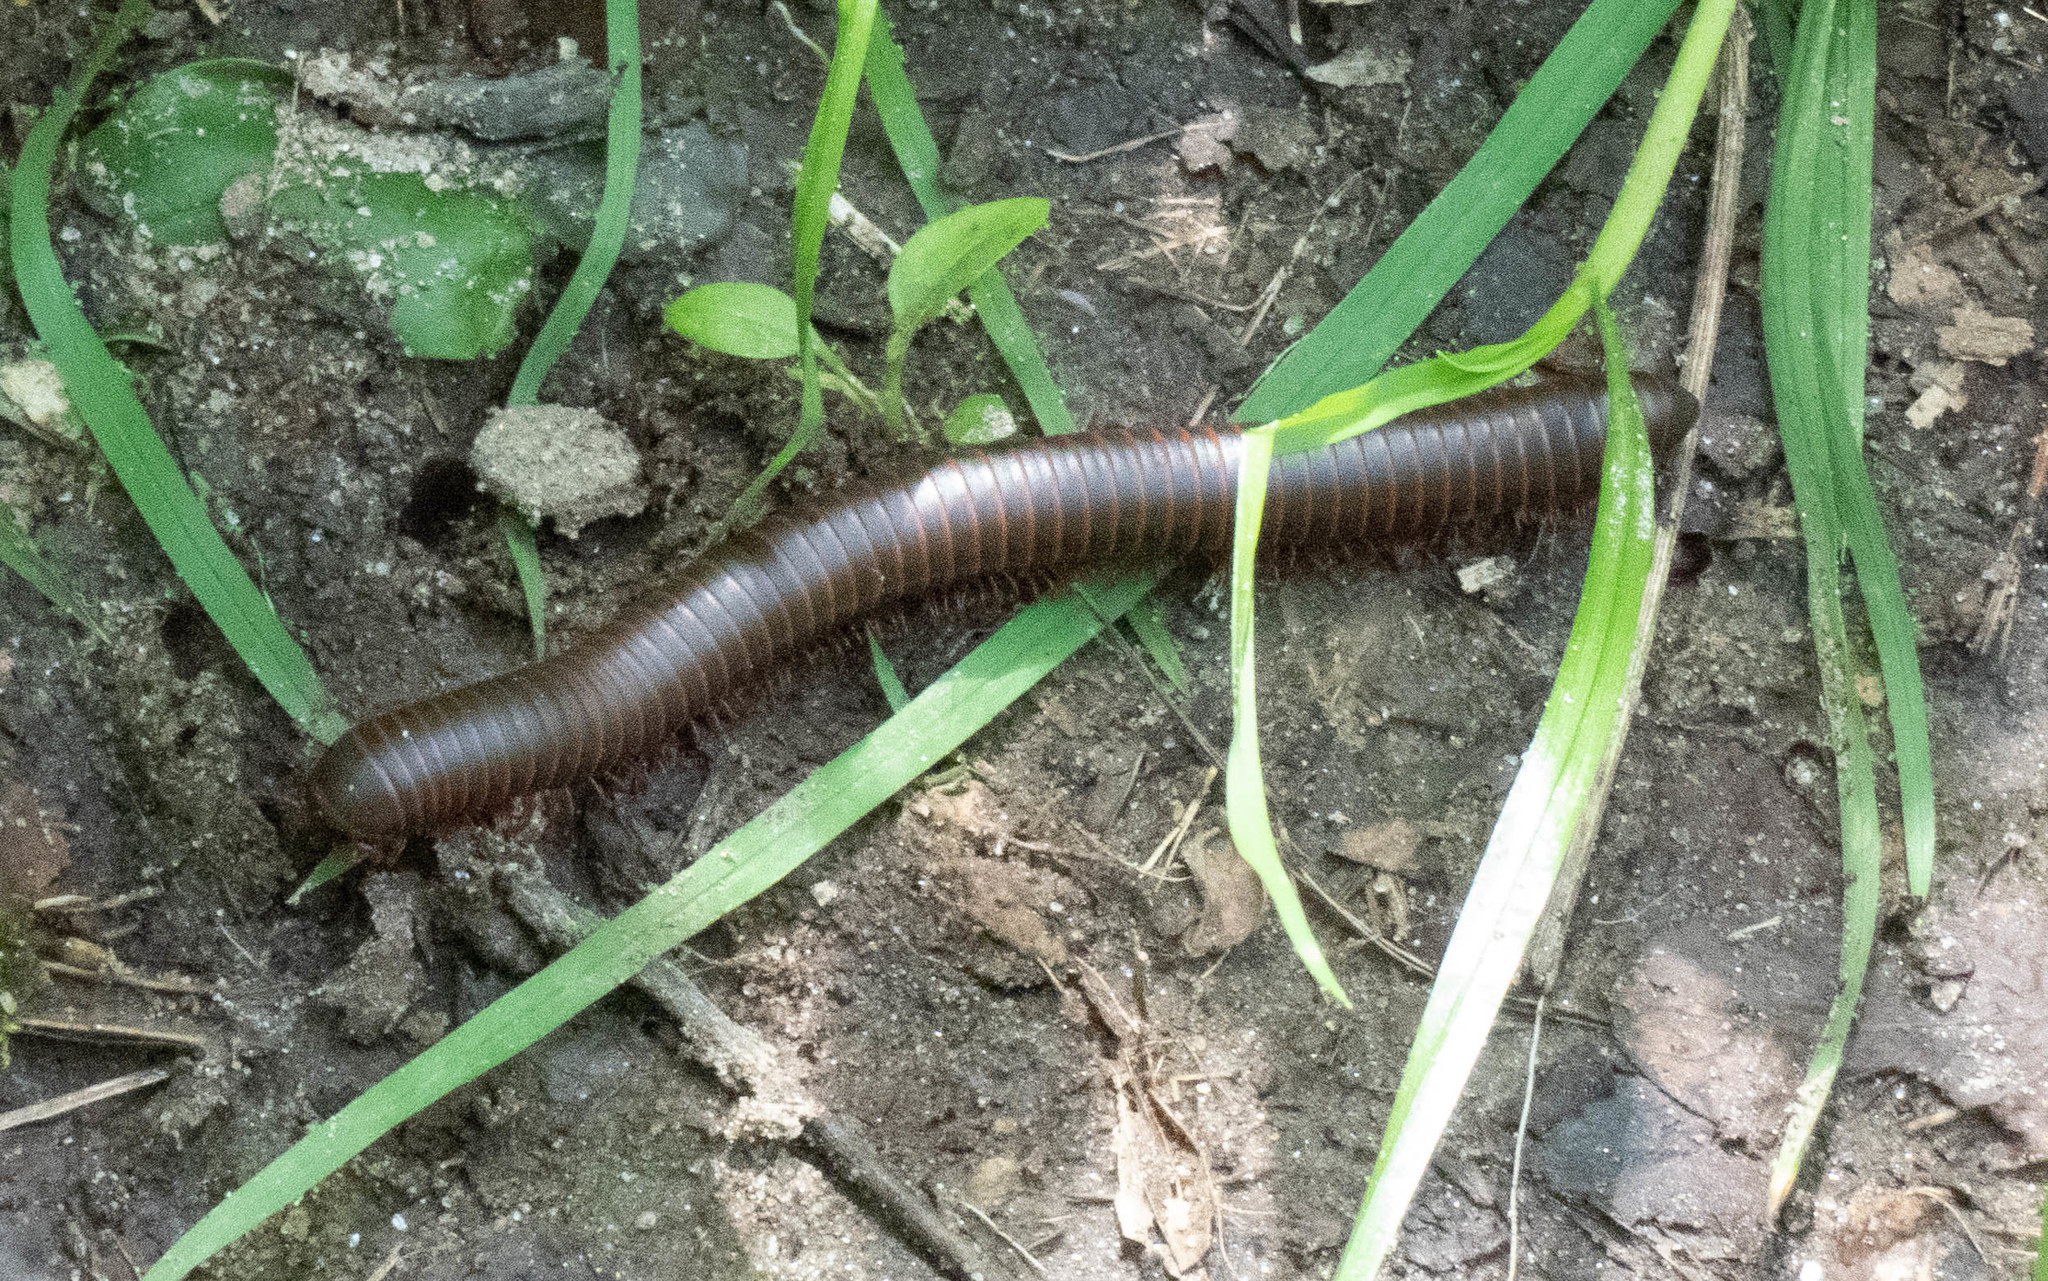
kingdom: Animalia
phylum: Arthropoda
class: Diplopoda
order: Spirobolida
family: Spirobolidae
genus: Narceus
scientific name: Narceus
